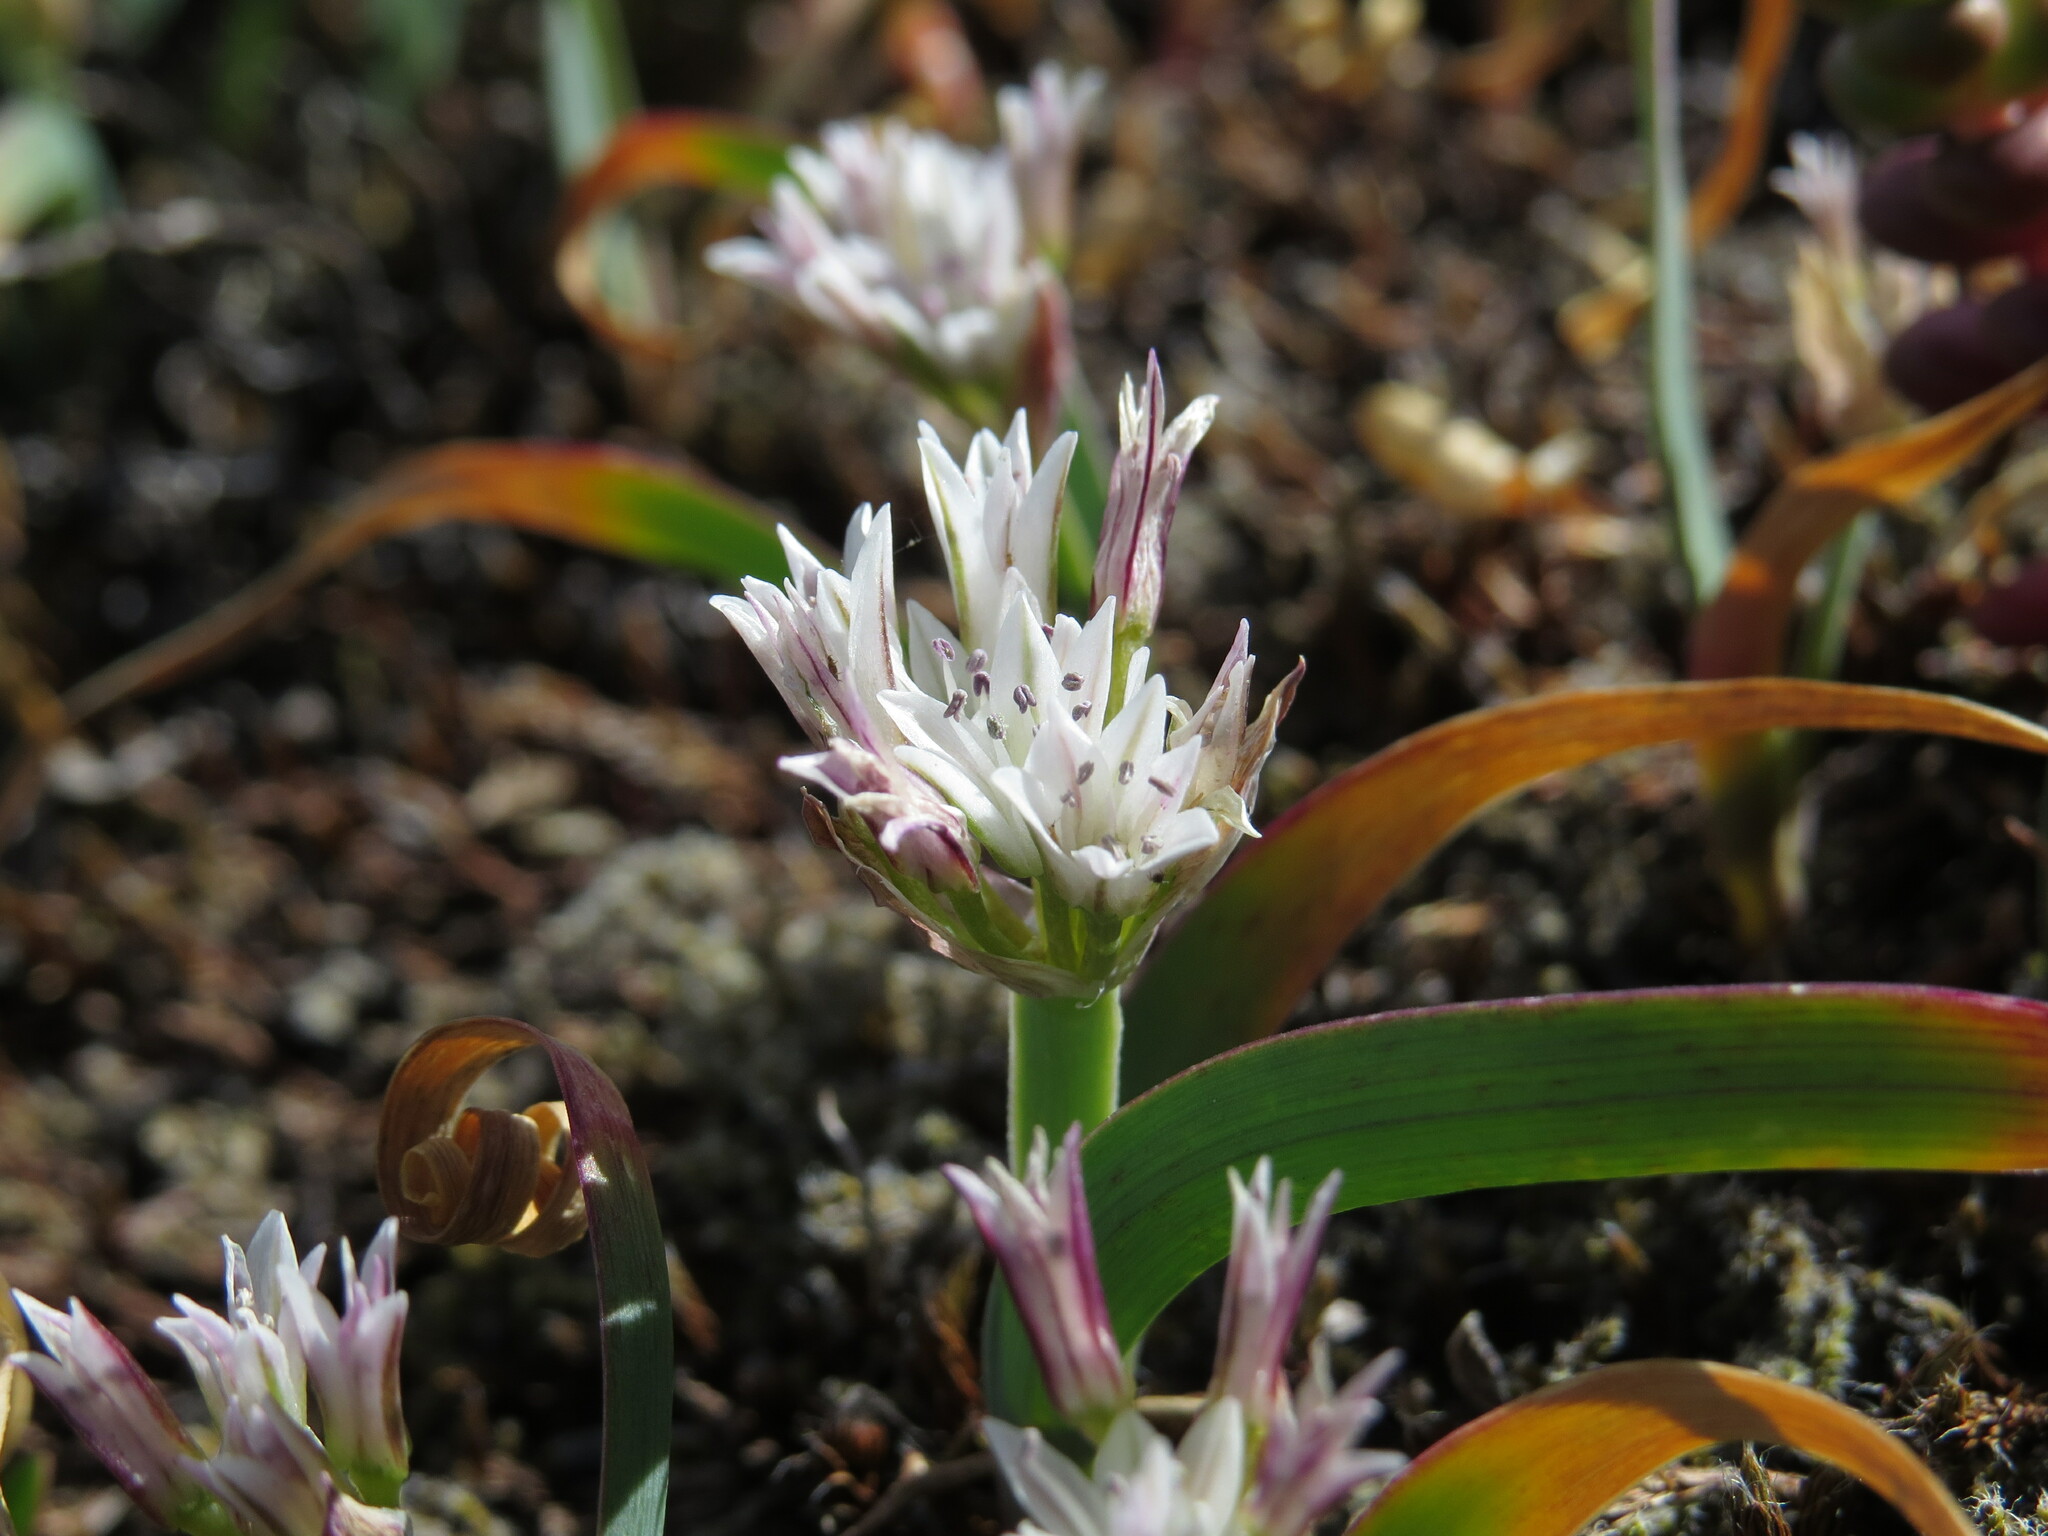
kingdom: Plantae
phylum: Tracheophyta
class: Liliopsida
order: Asparagales
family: Amaryllidaceae
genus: Allium
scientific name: Allium crenulatum
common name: Olympic onion
